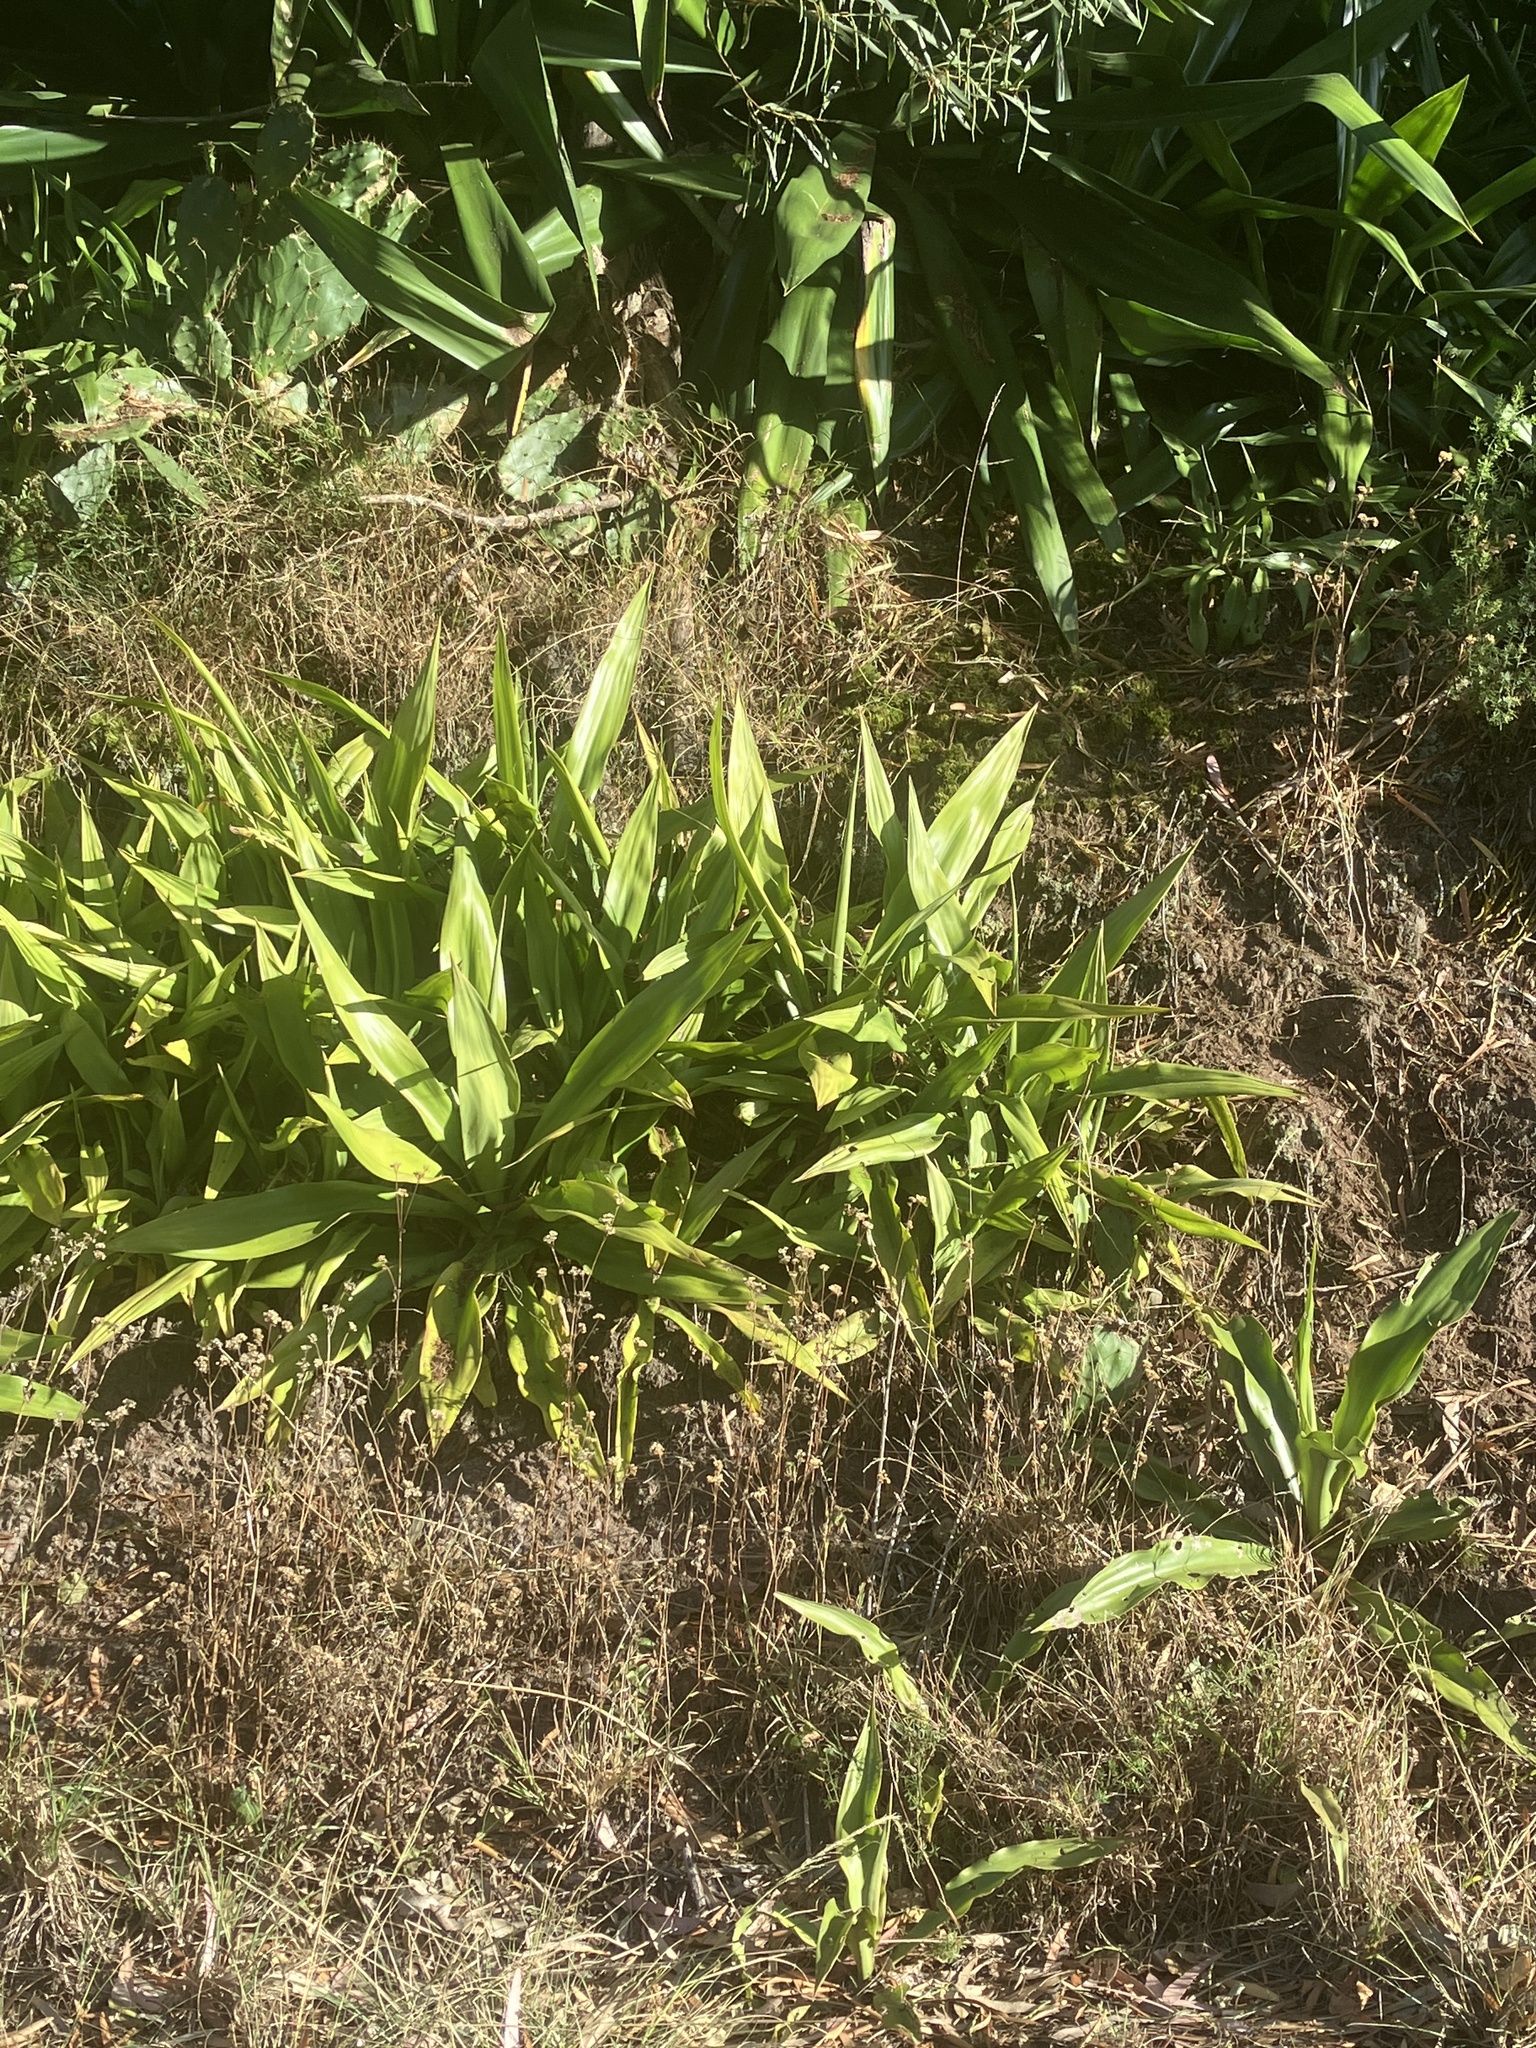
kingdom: Plantae
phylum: Tracheophyta
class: Liliopsida
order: Asparagales
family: Asparagaceae
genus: Furcraea
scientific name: Furcraea foetida
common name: Mauritius hemp
